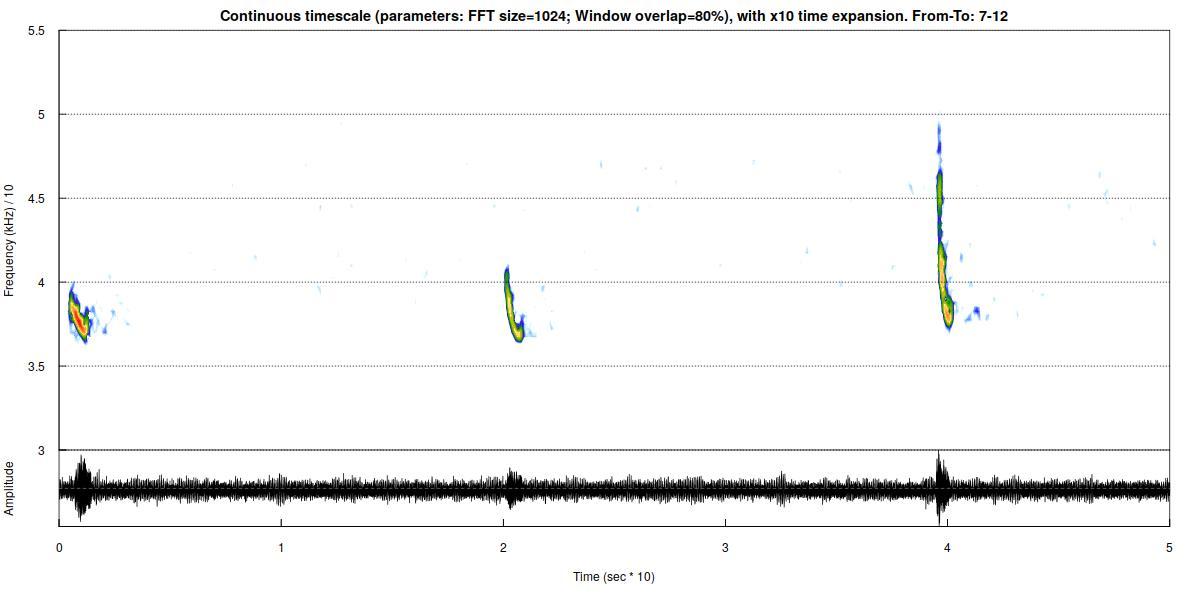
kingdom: Animalia
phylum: Chordata
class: Mammalia
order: Chiroptera
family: Vespertilionidae
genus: Pipistrellus
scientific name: Pipistrellus nathusii
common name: Nathusius's pipistrelle
